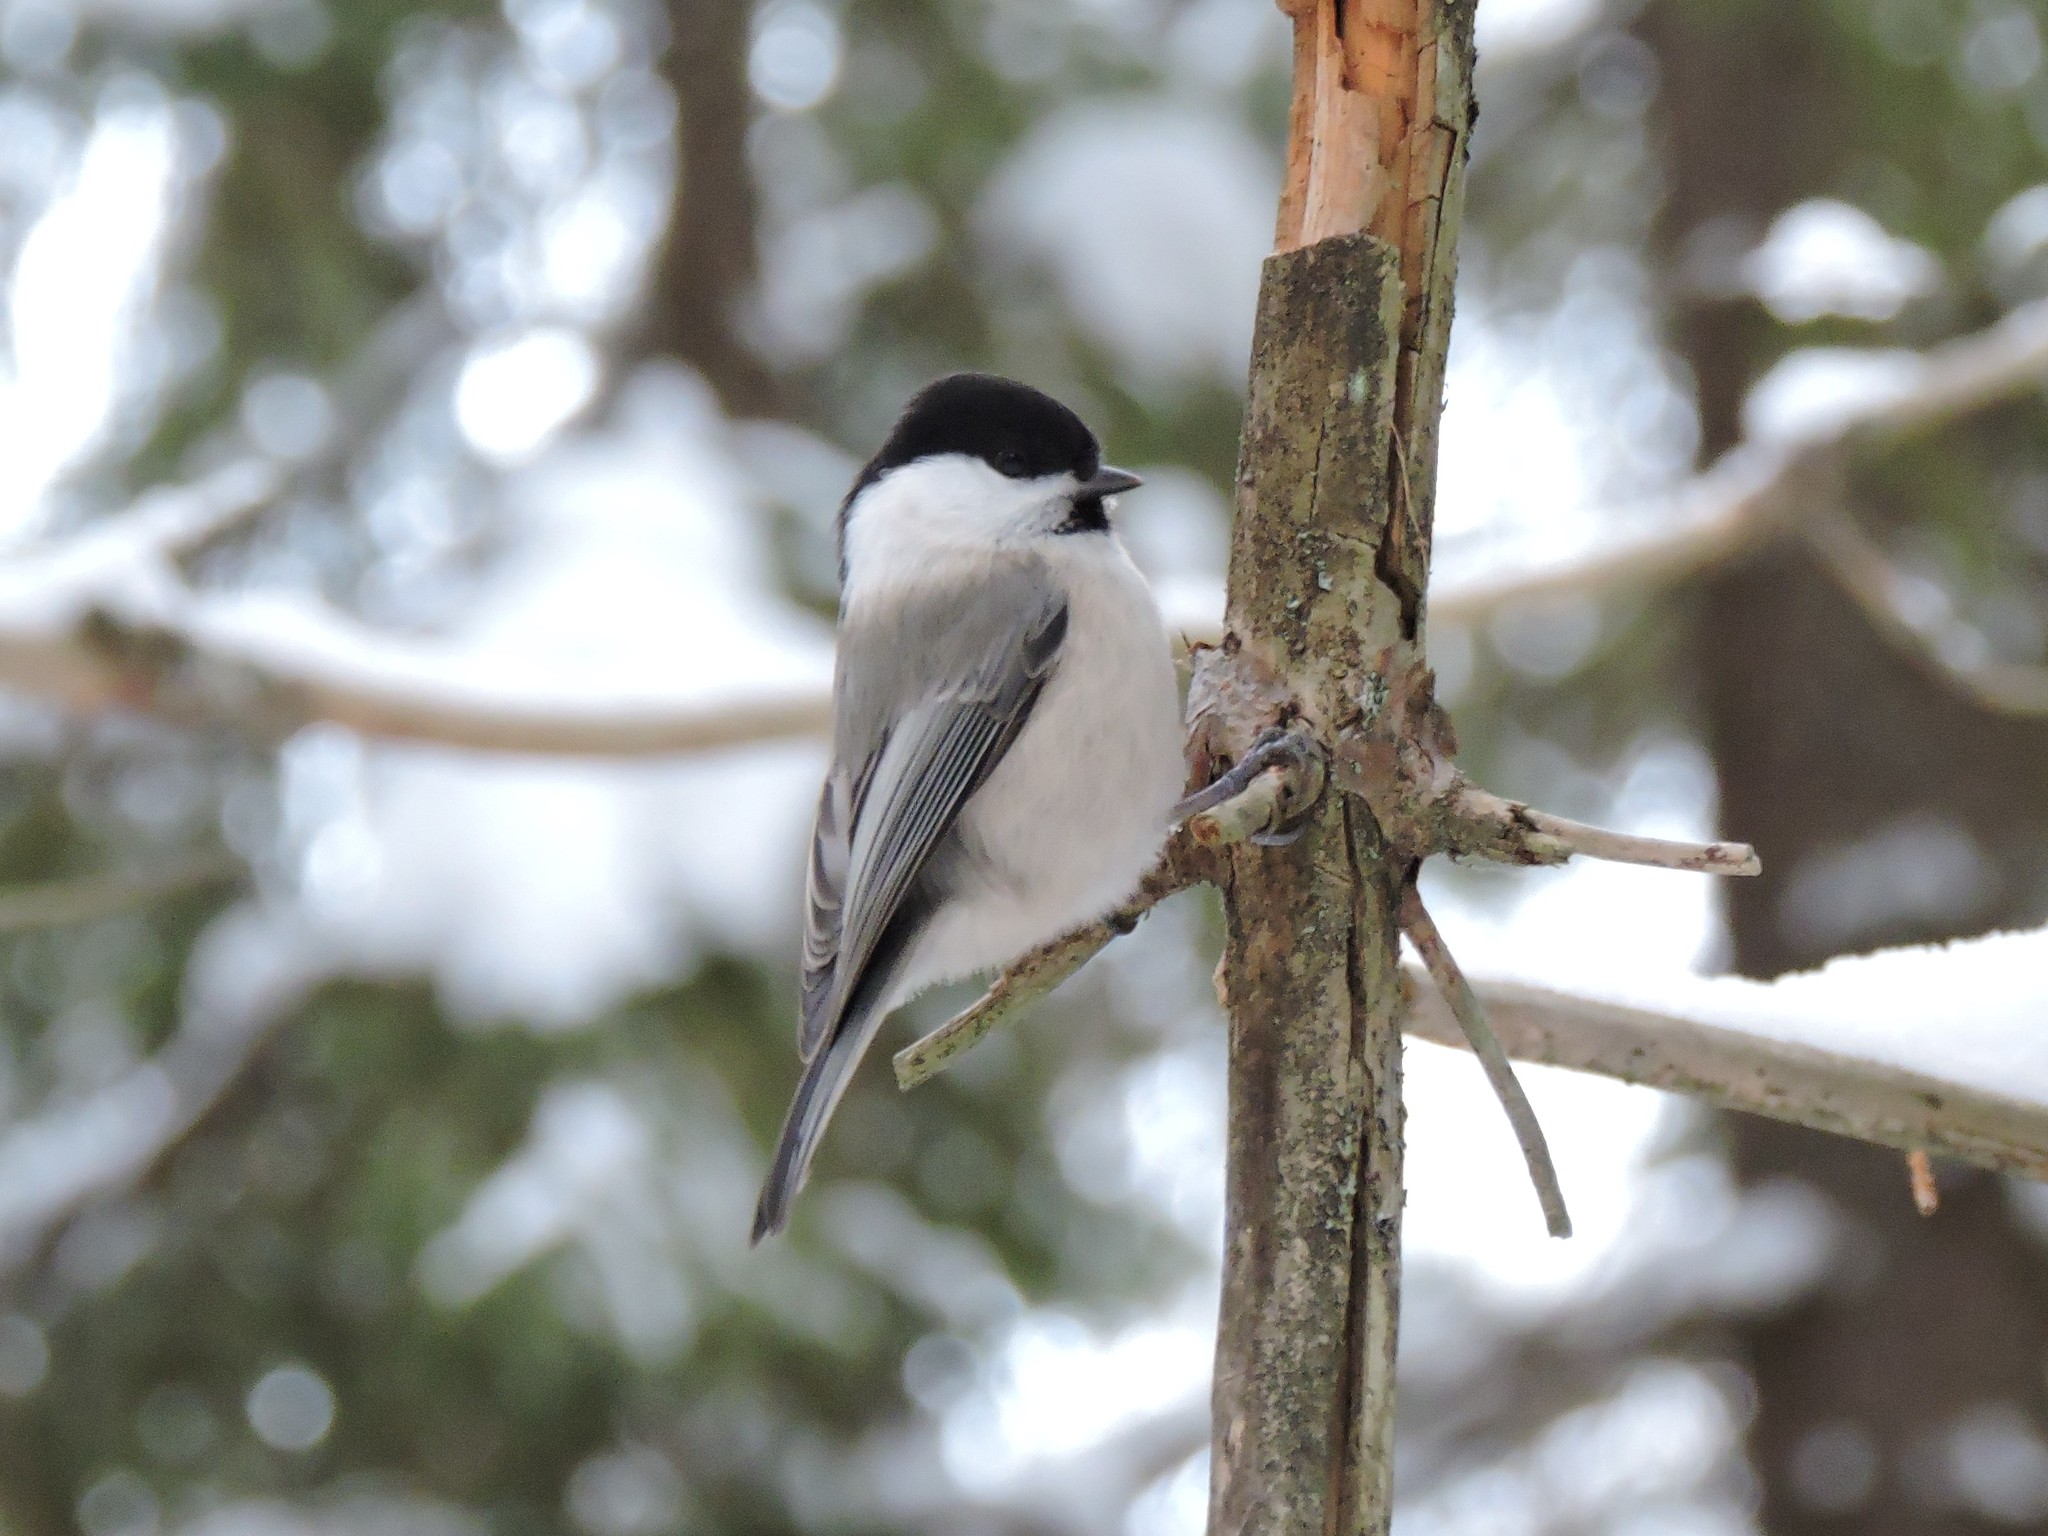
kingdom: Animalia
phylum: Chordata
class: Aves
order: Passeriformes
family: Paridae
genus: Poecile
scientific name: Poecile montanus
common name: Willow tit
